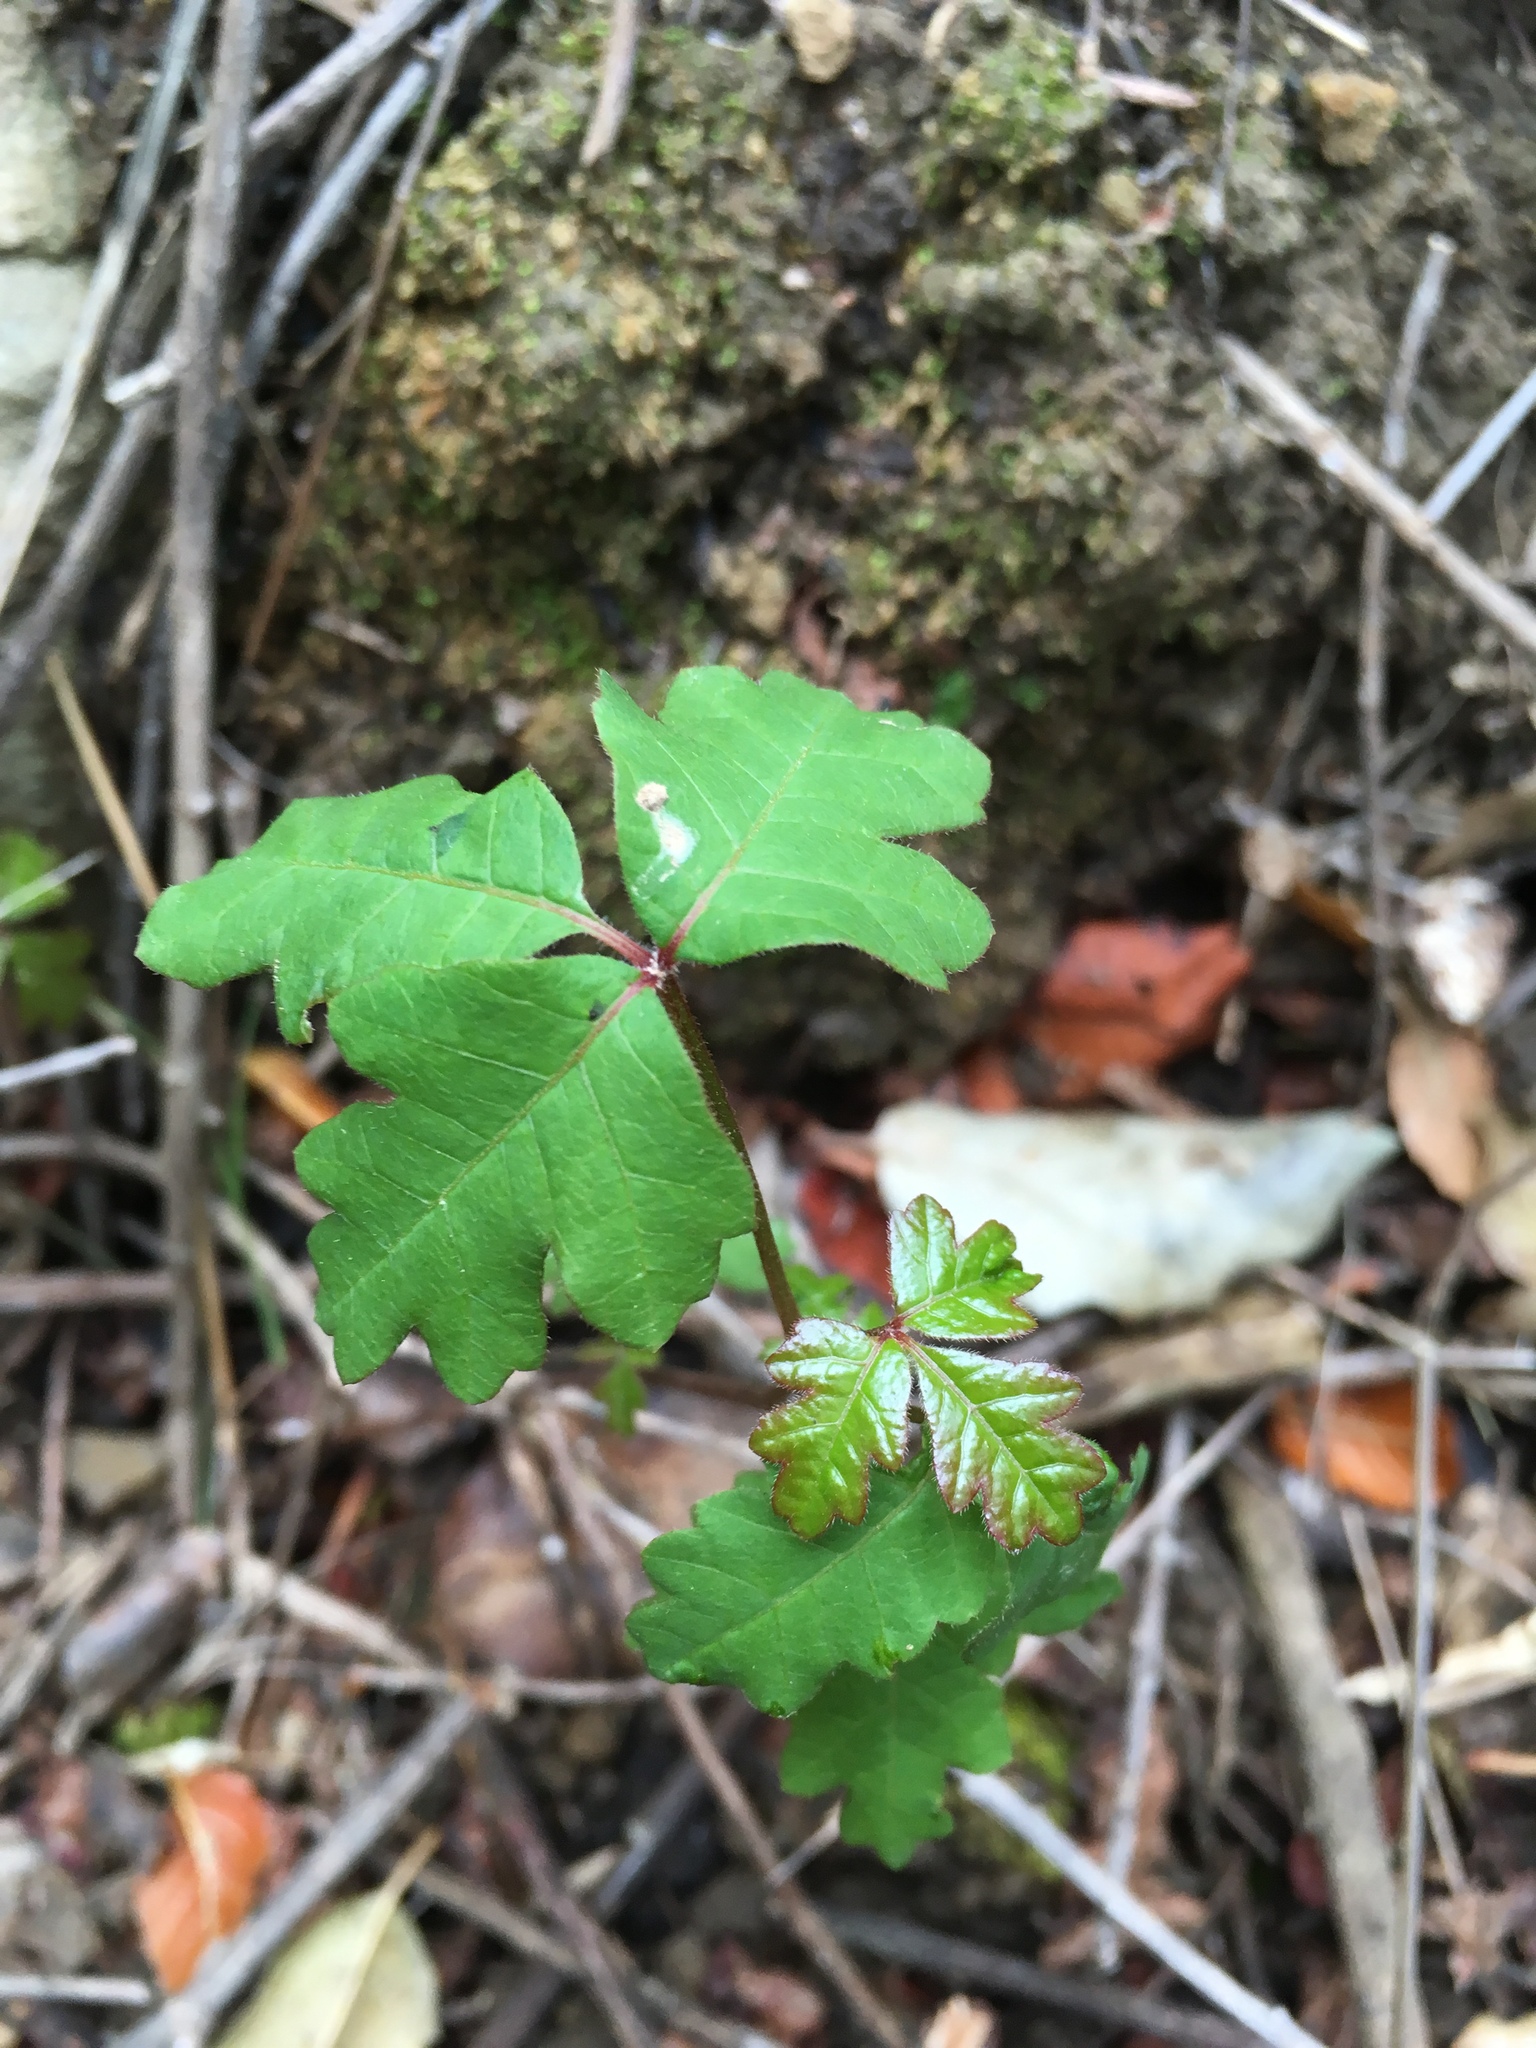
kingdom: Plantae
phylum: Tracheophyta
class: Magnoliopsida
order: Sapindales
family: Anacardiaceae
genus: Toxicodendron
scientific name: Toxicodendron diversilobum
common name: Pacific poison-oak
